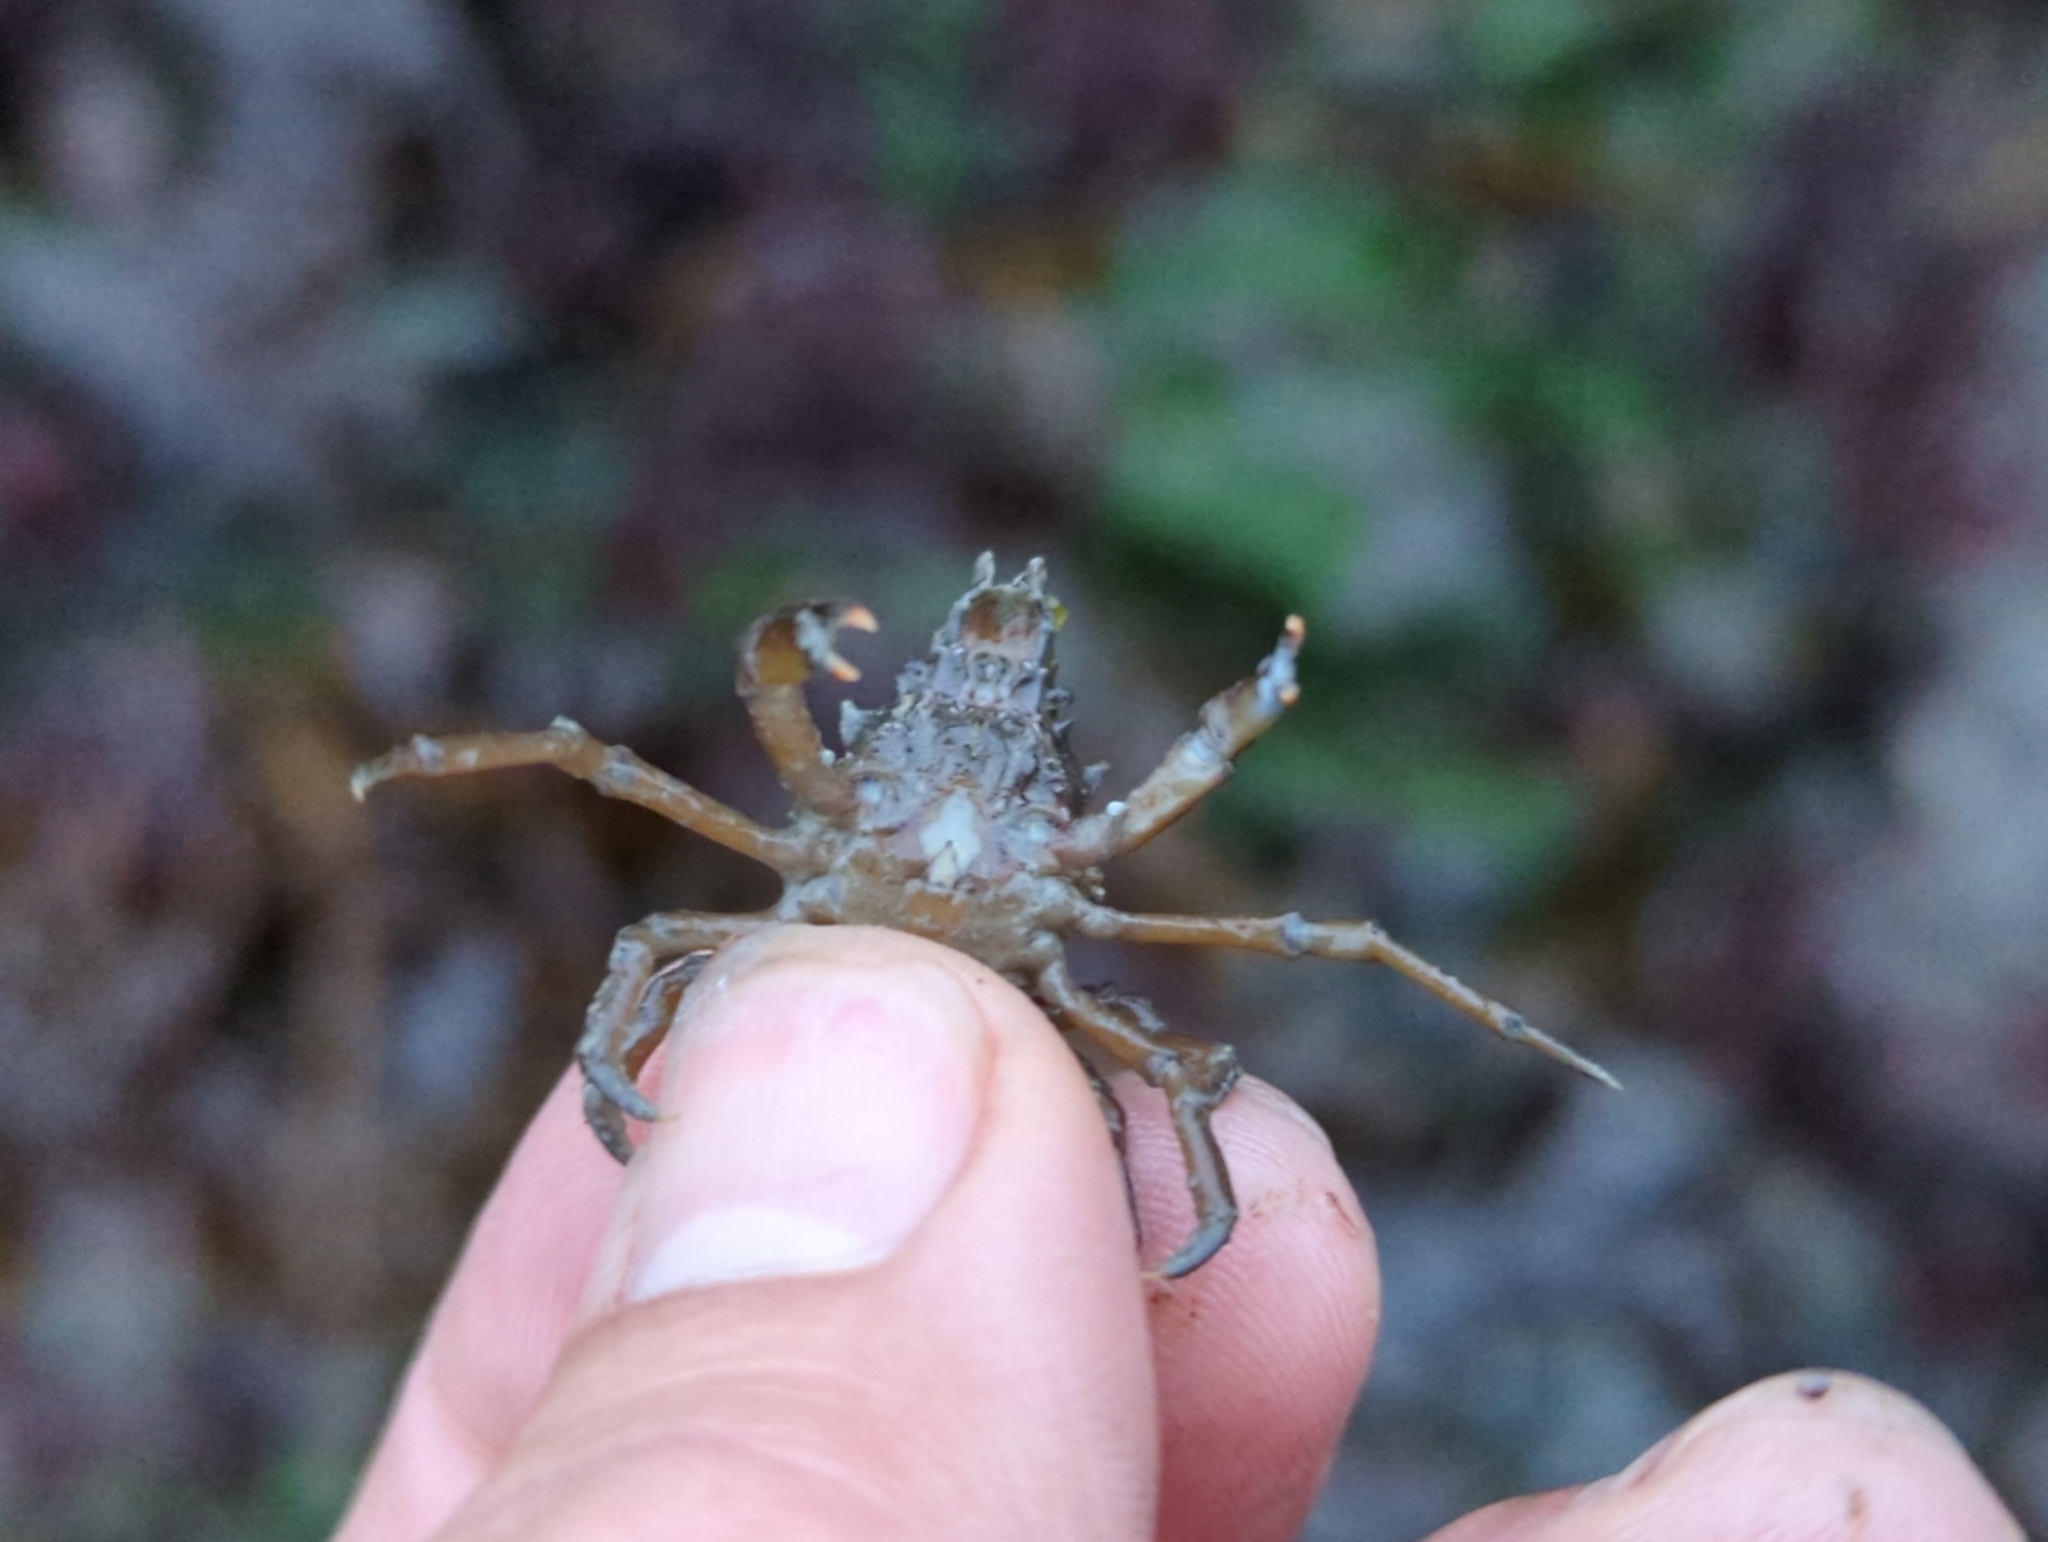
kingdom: Animalia
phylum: Arthropoda
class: Malacostraca
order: Decapoda
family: Epialtidae
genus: Pugettia
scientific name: Pugettia gracilis
